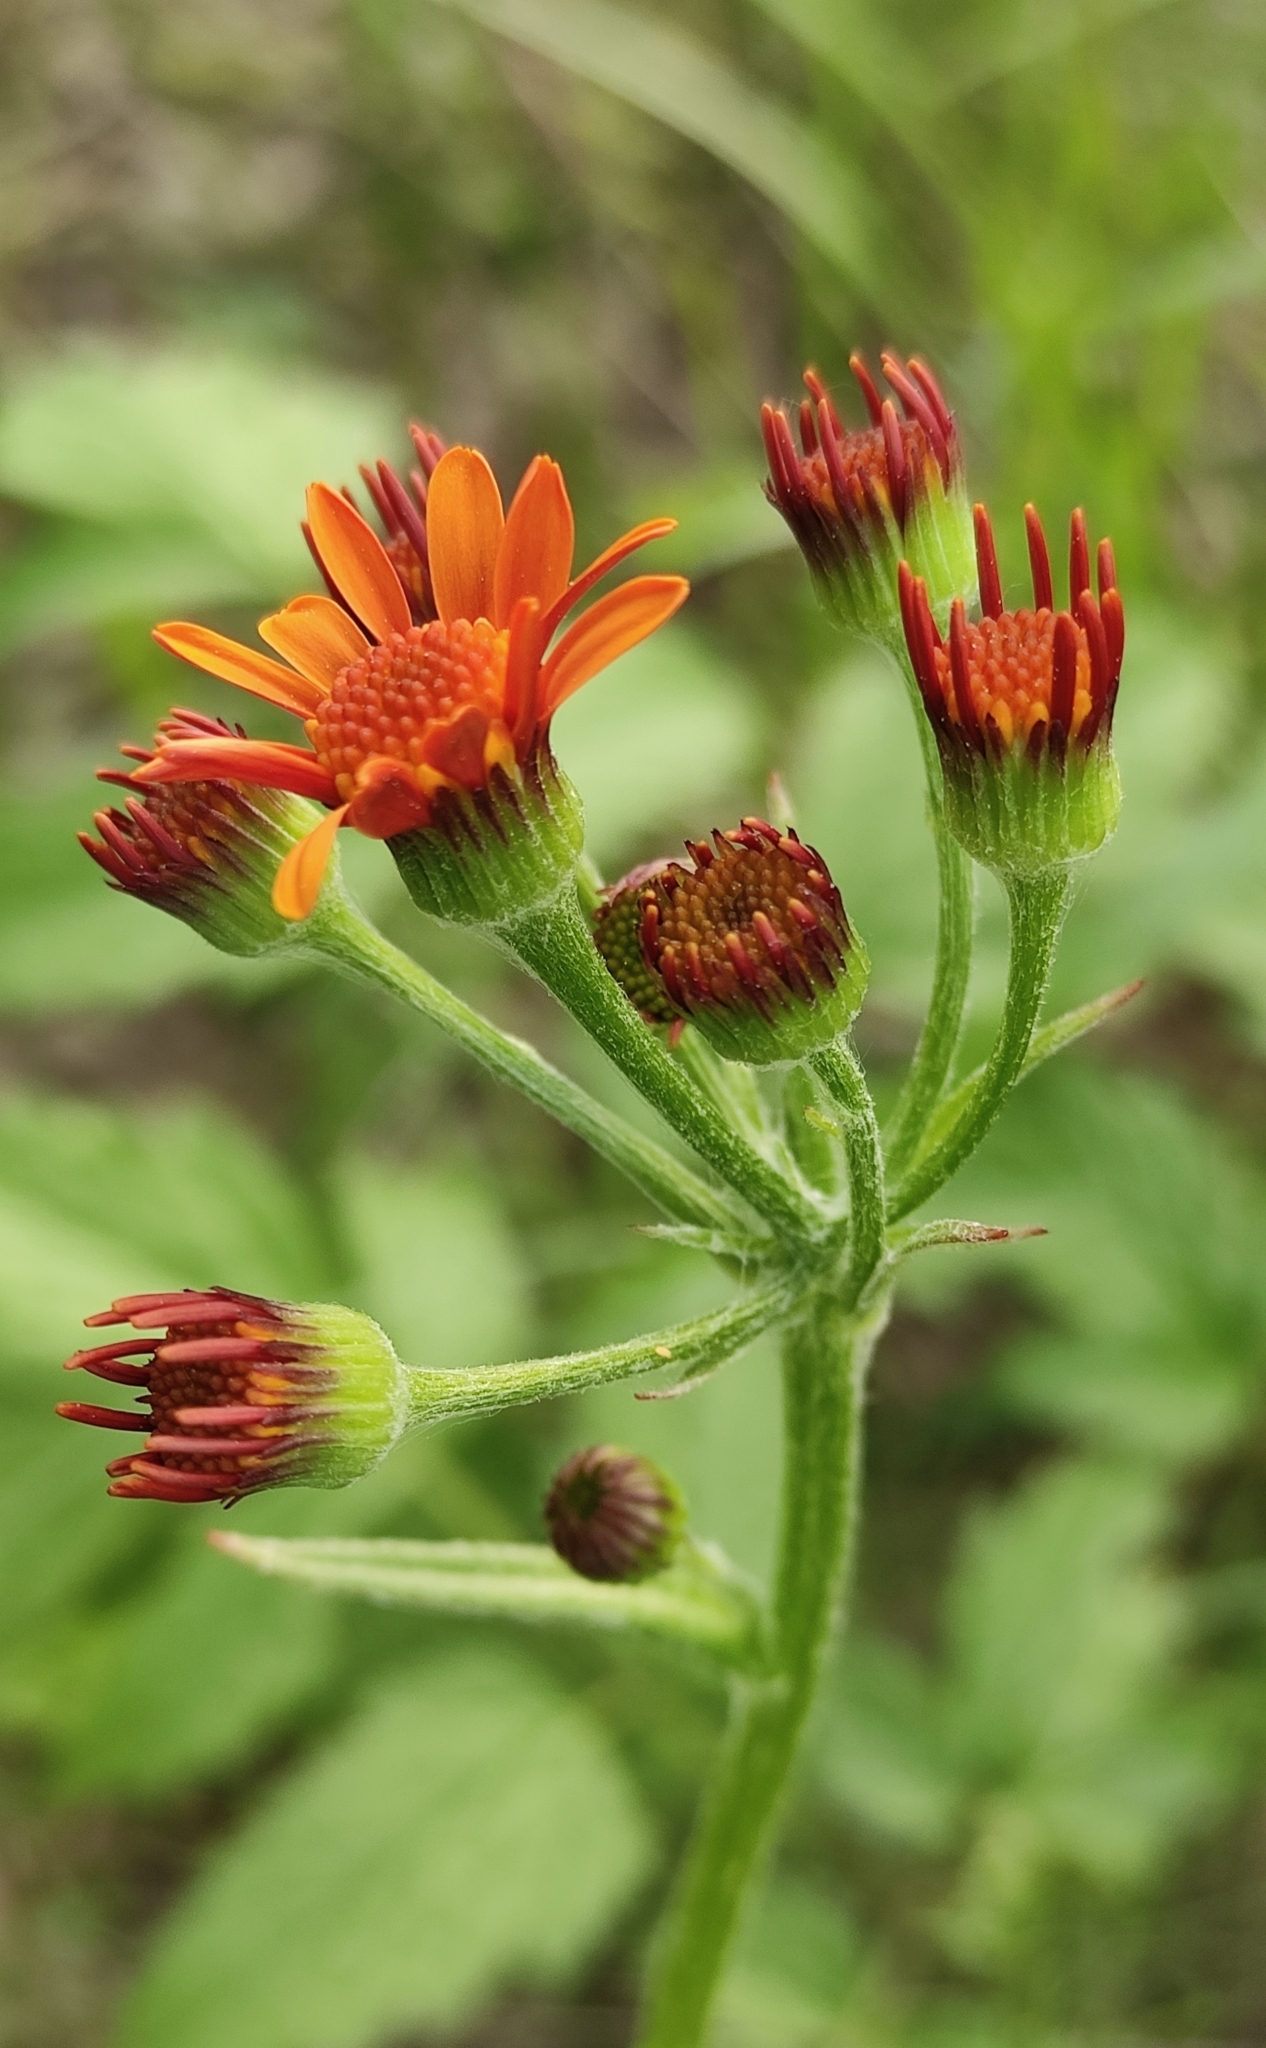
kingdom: Plantae
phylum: Tracheophyta
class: Magnoliopsida
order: Asterales
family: Asteraceae
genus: Tephroseris
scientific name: Tephroseris porphyrantha
